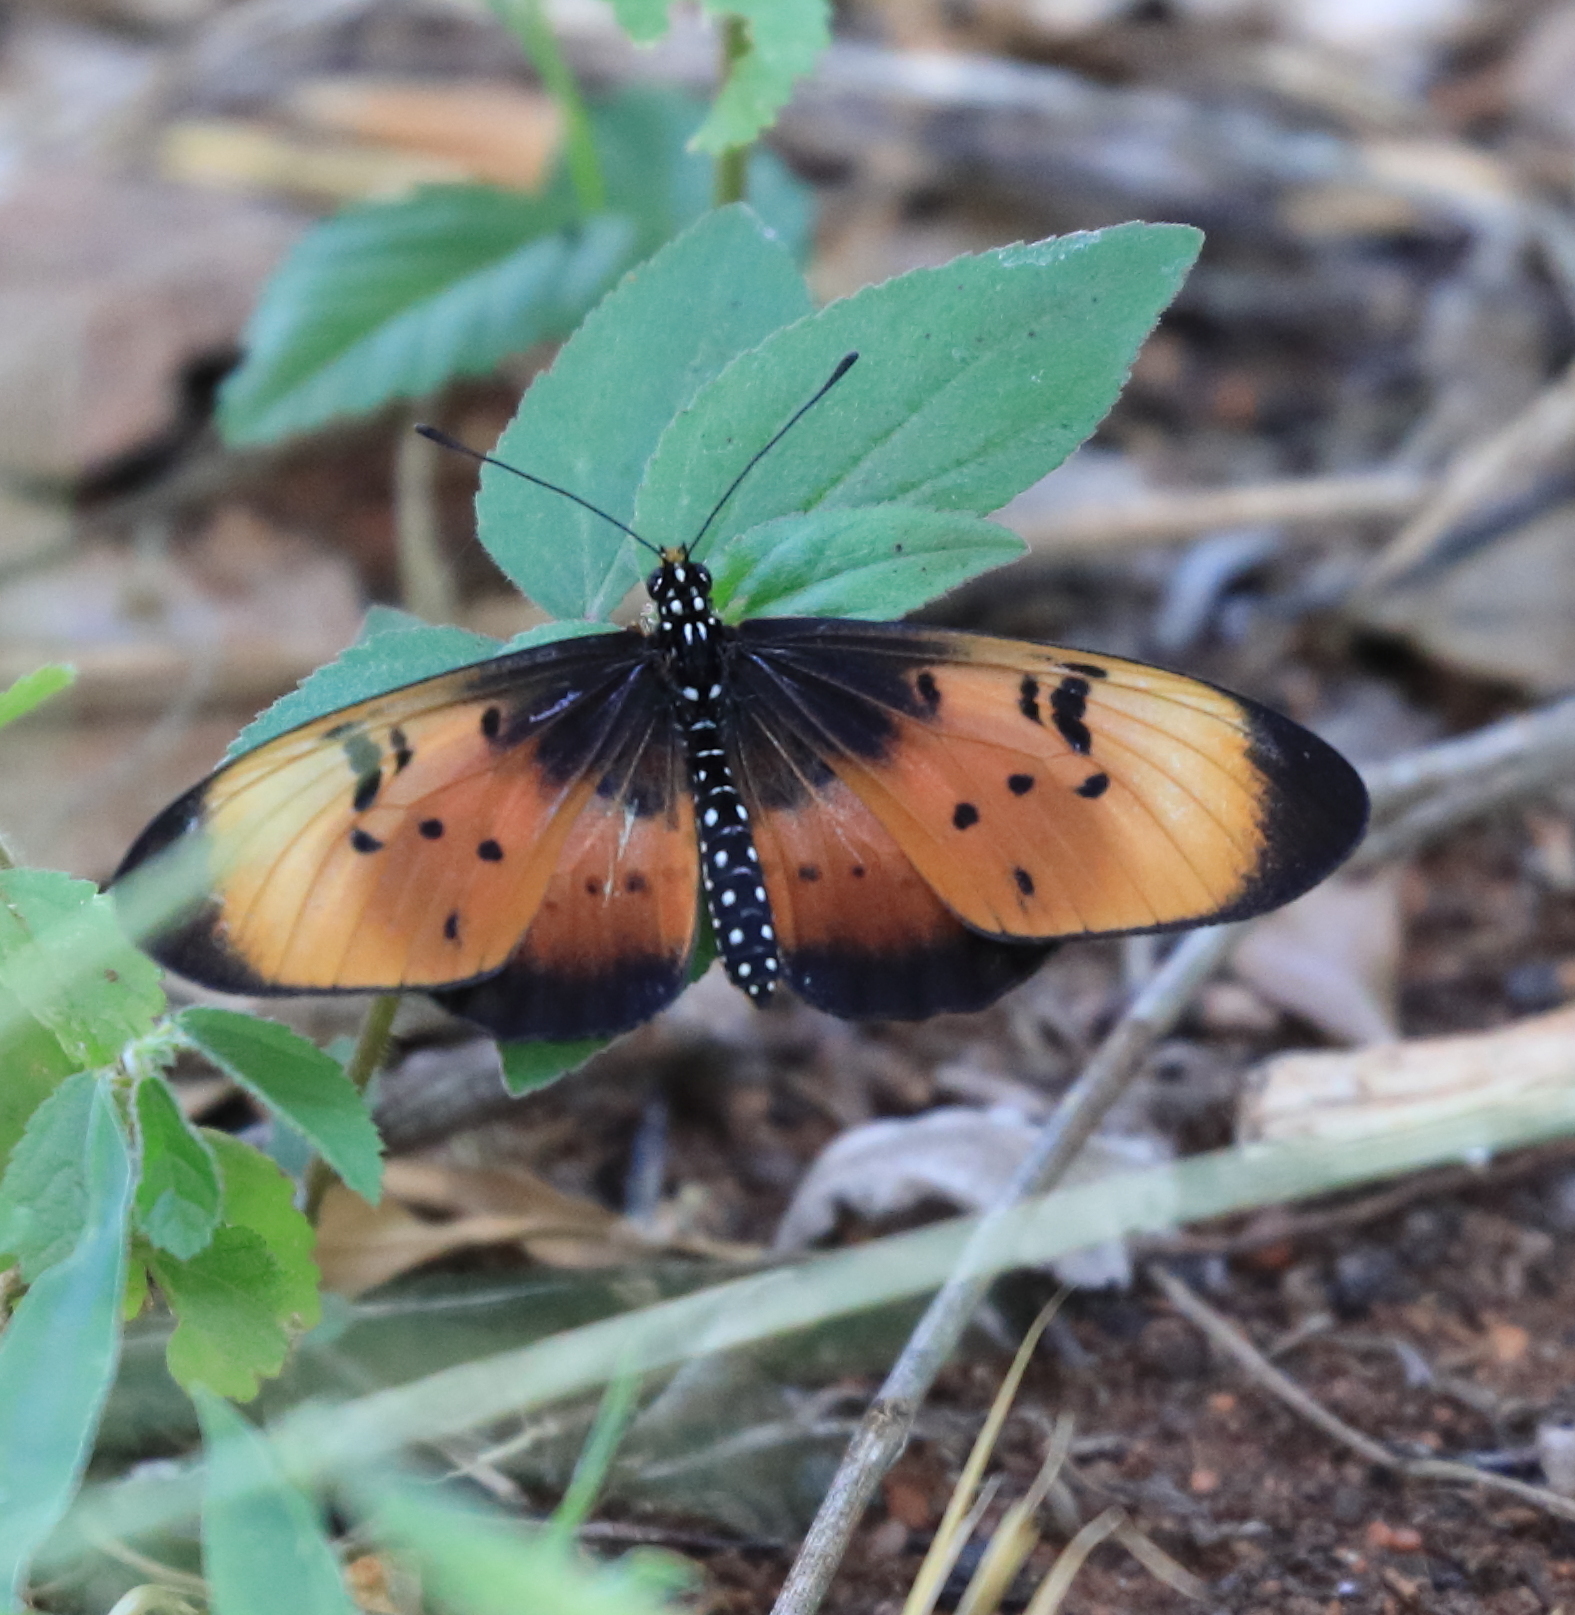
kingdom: Animalia
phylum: Arthropoda
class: Insecta
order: Lepidoptera
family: Nymphalidae
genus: Stephenia
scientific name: Stephenia
